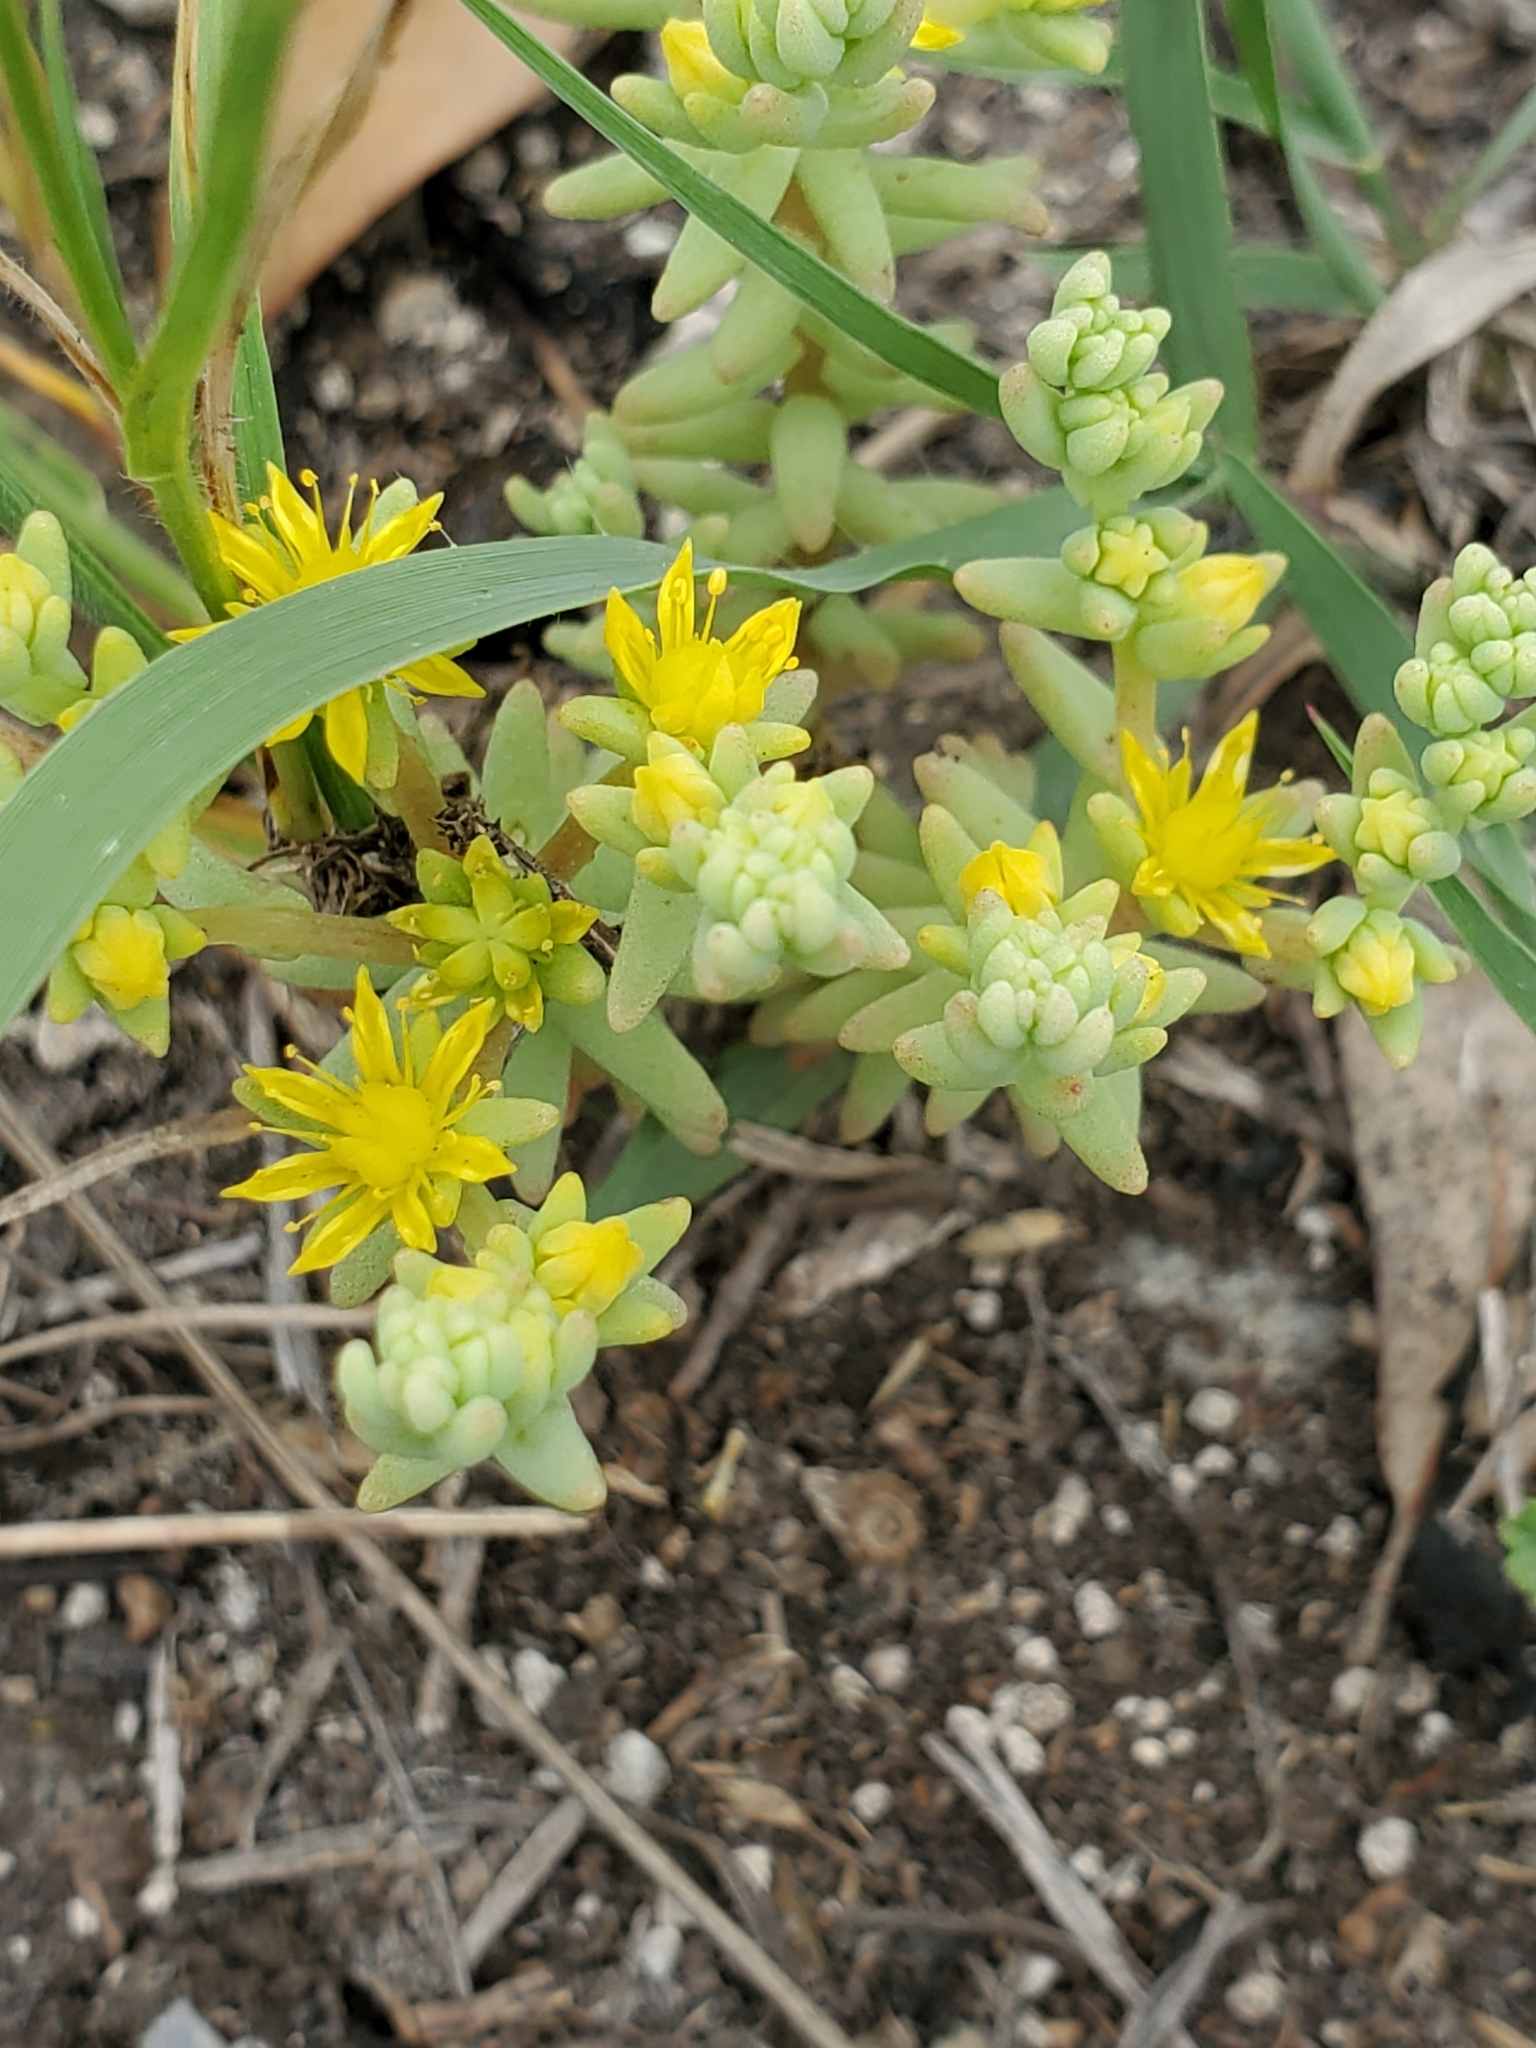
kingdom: Plantae
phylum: Tracheophyta
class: Magnoliopsida
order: Saxifragales
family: Crassulaceae
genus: Sedum
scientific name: Sedum nuttallii
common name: Yellow stonecrop
